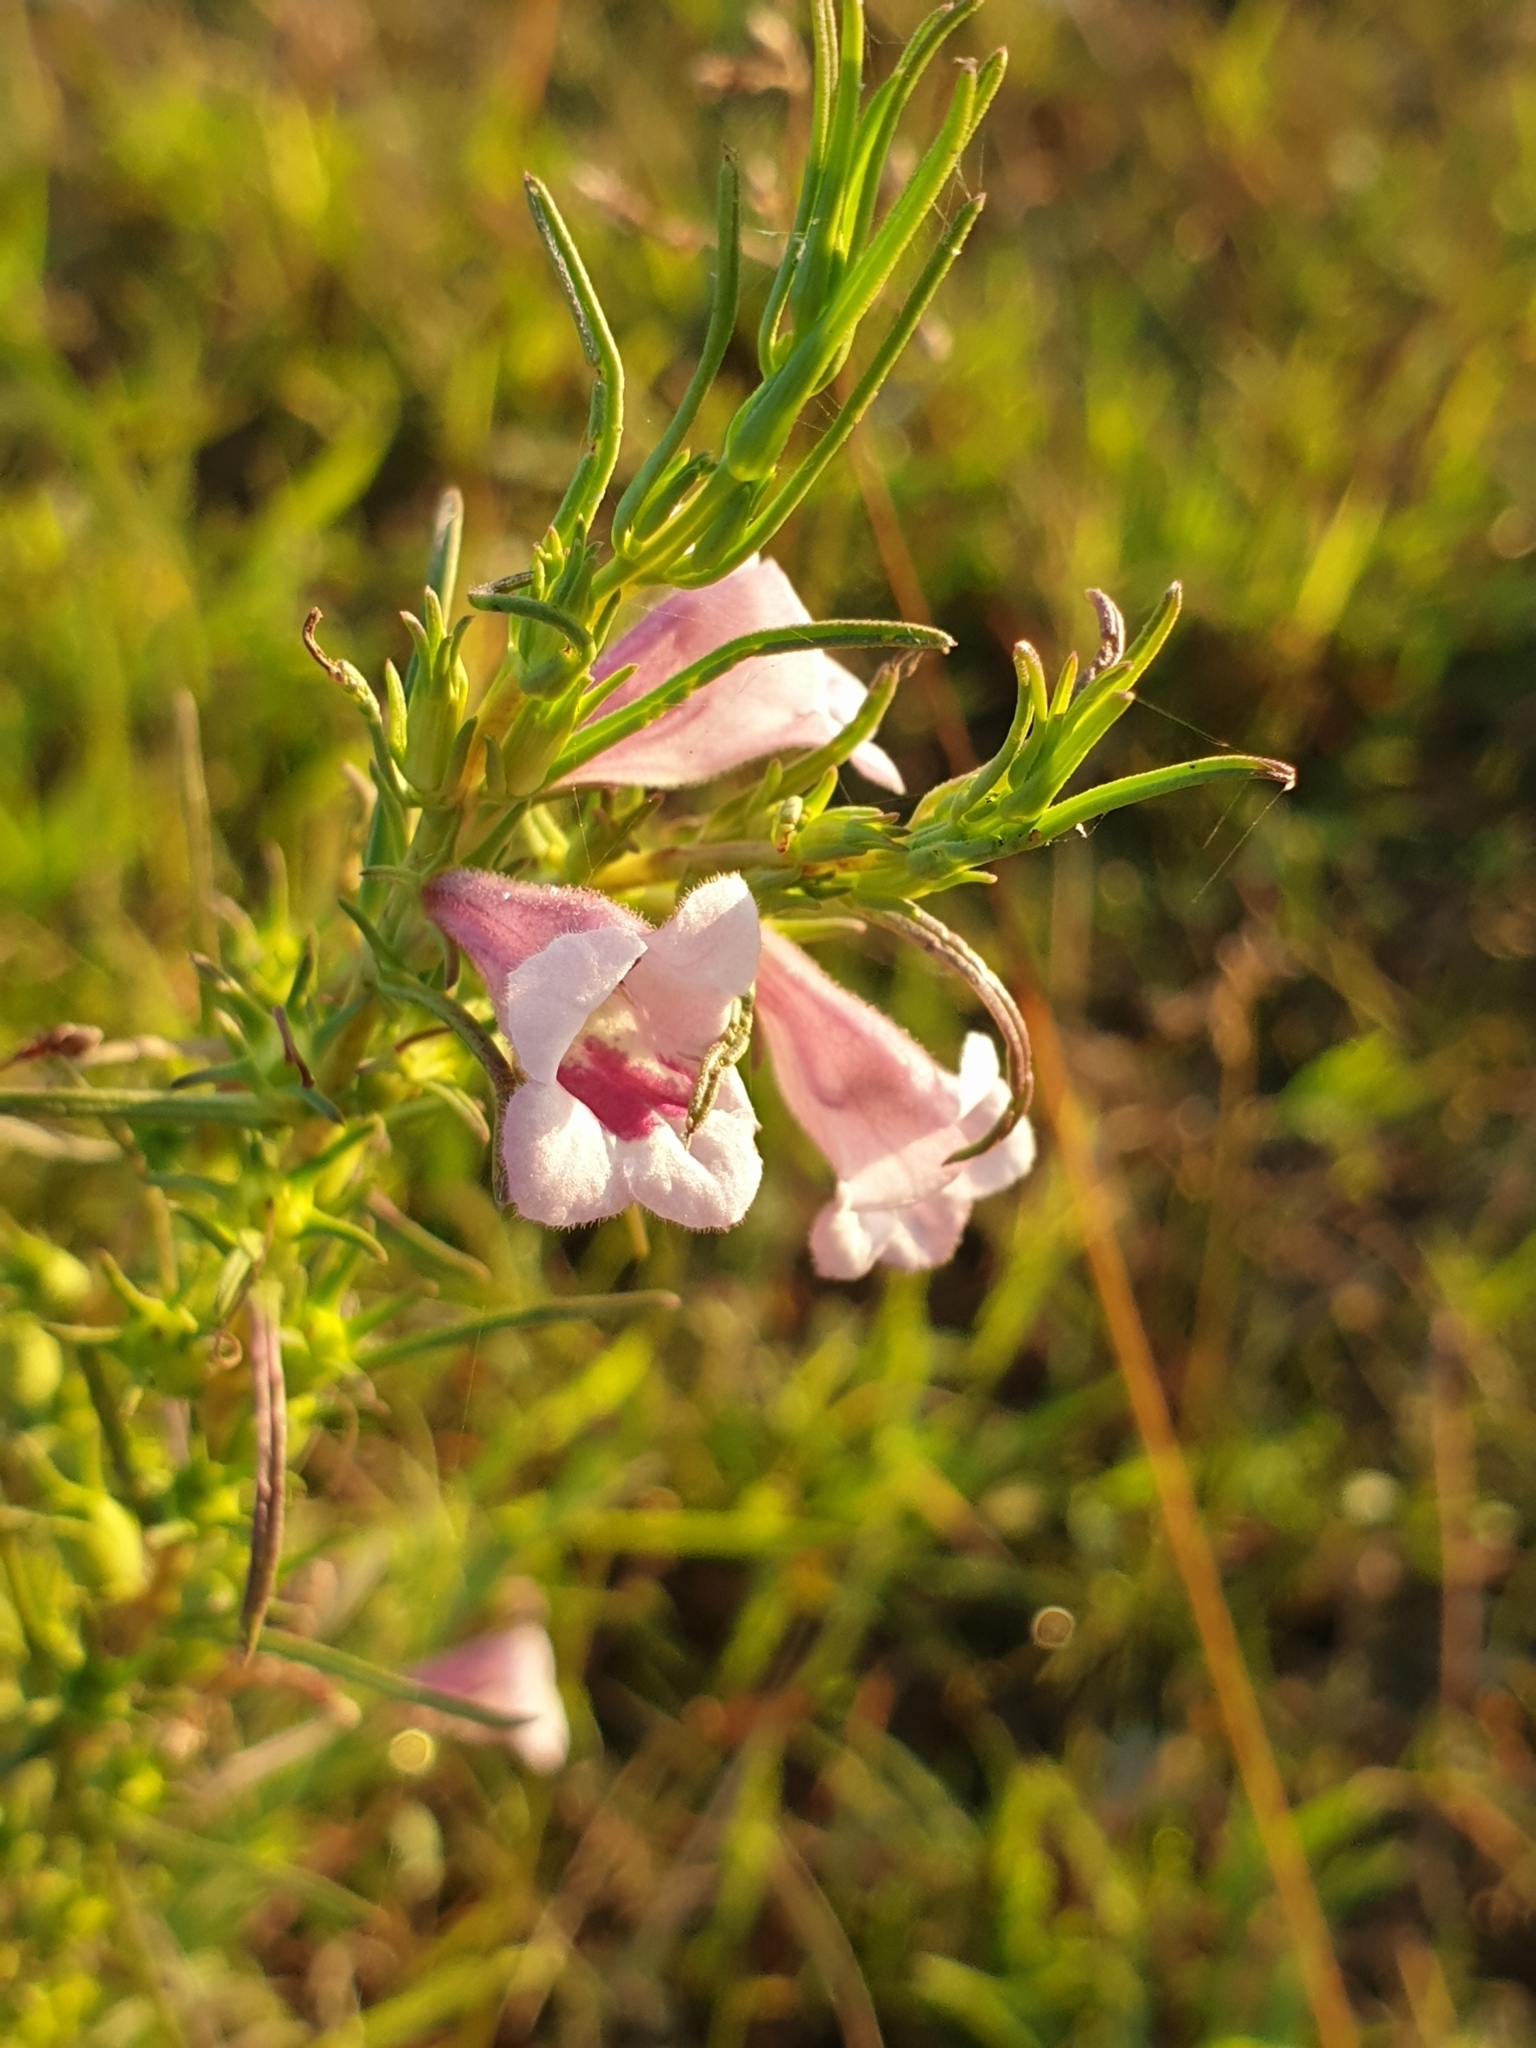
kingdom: Plantae
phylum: Tracheophyta
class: Magnoliopsida
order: Lamiales
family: Orobanchaceae
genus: Parasopubia
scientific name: Parasopubia delphiniifolia
